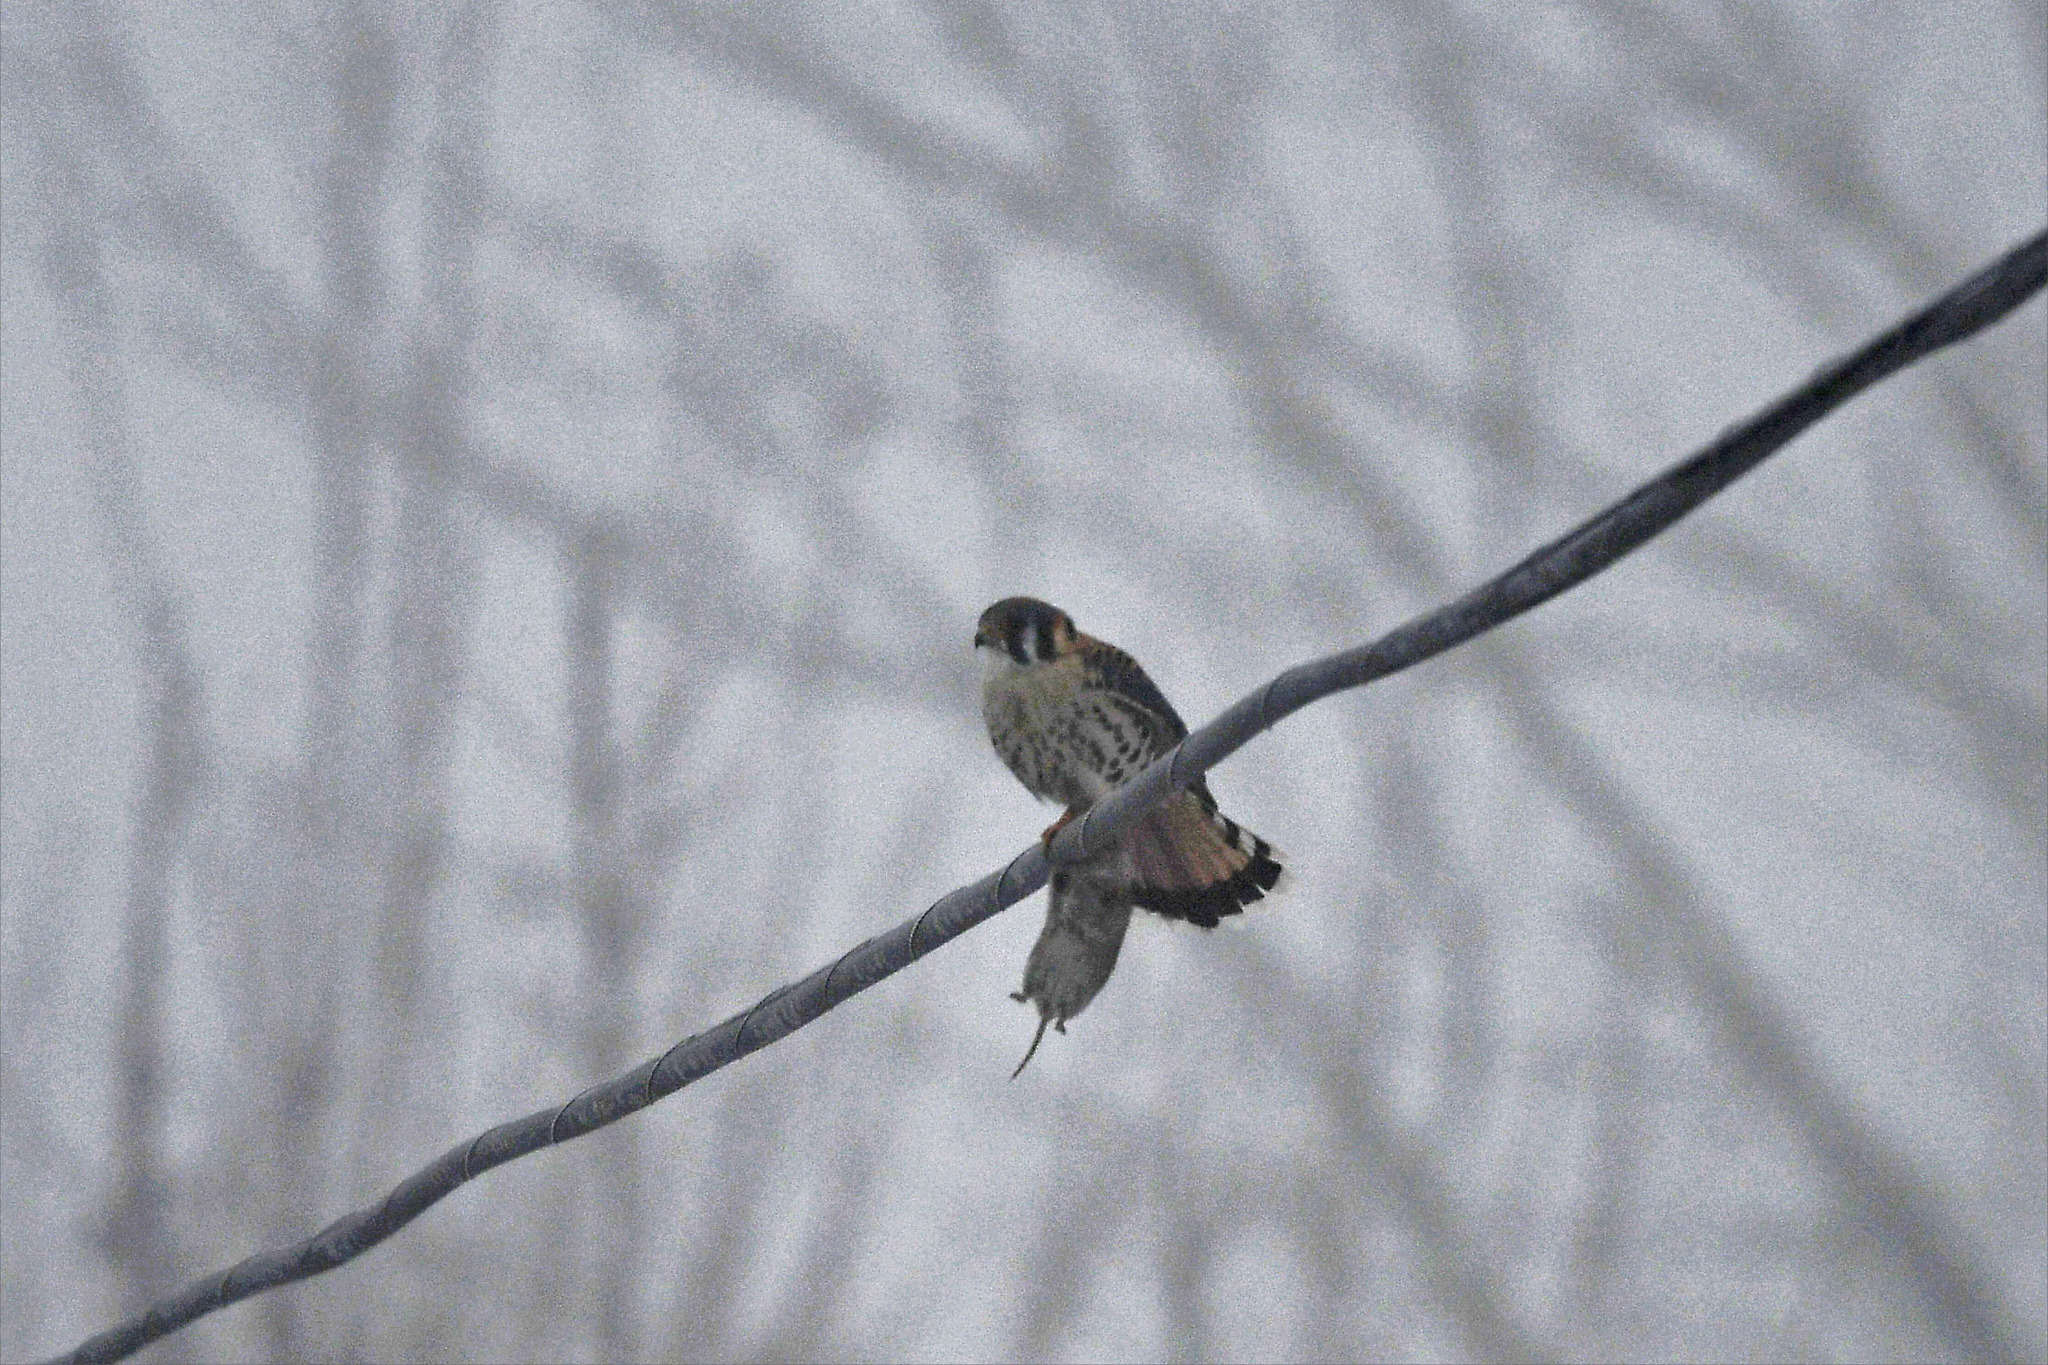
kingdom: Animalia
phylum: Chordata
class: Aves
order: Falconiformes
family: Falconidae
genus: Falco
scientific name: Falco sparverius
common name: American kestrel
